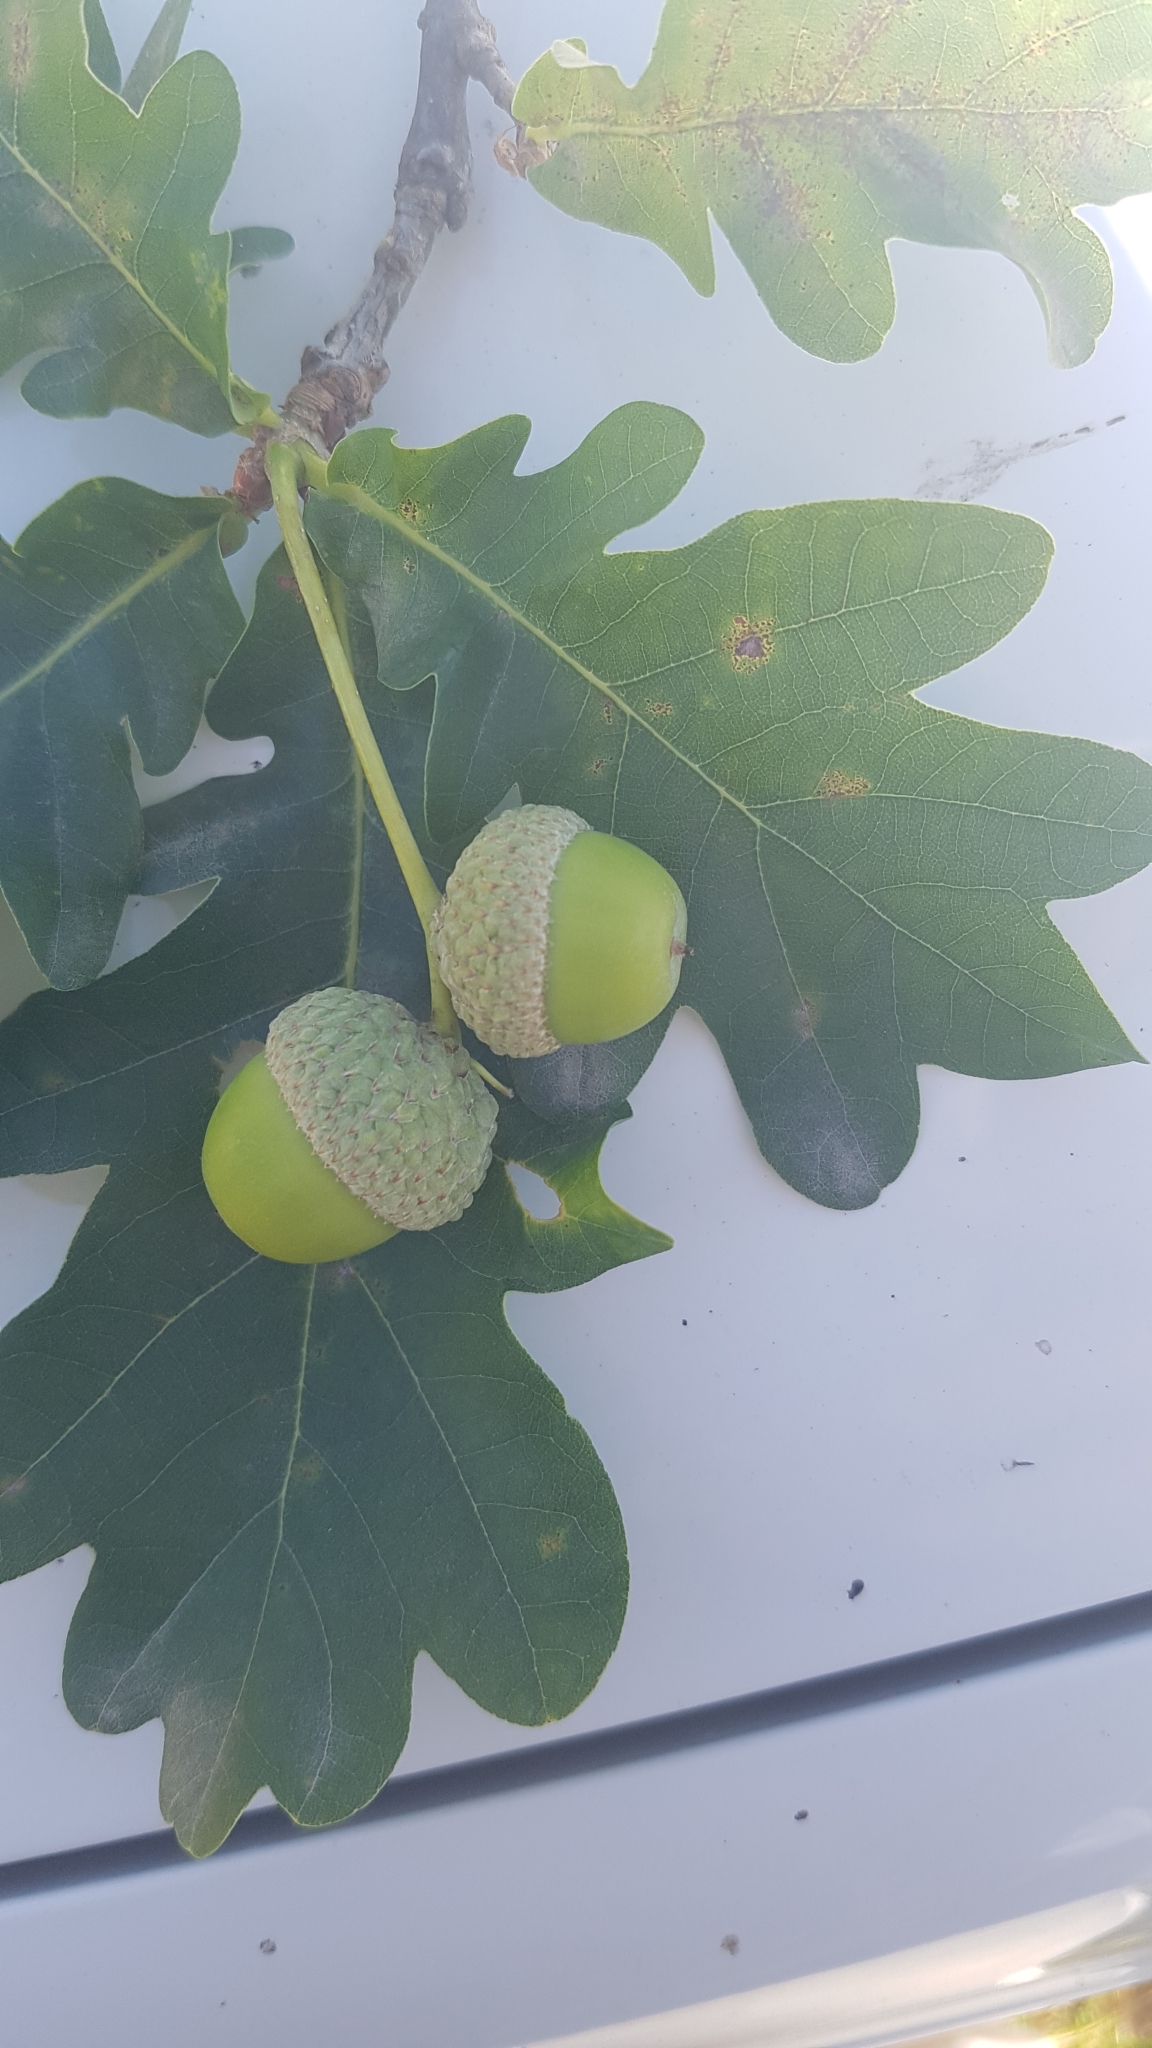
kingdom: Plantae
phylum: Tracheophyta
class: Magnoliopsida
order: Fagales
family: Fagaceae
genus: Quercus
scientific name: Quercus robur
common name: Pedunculate oak
